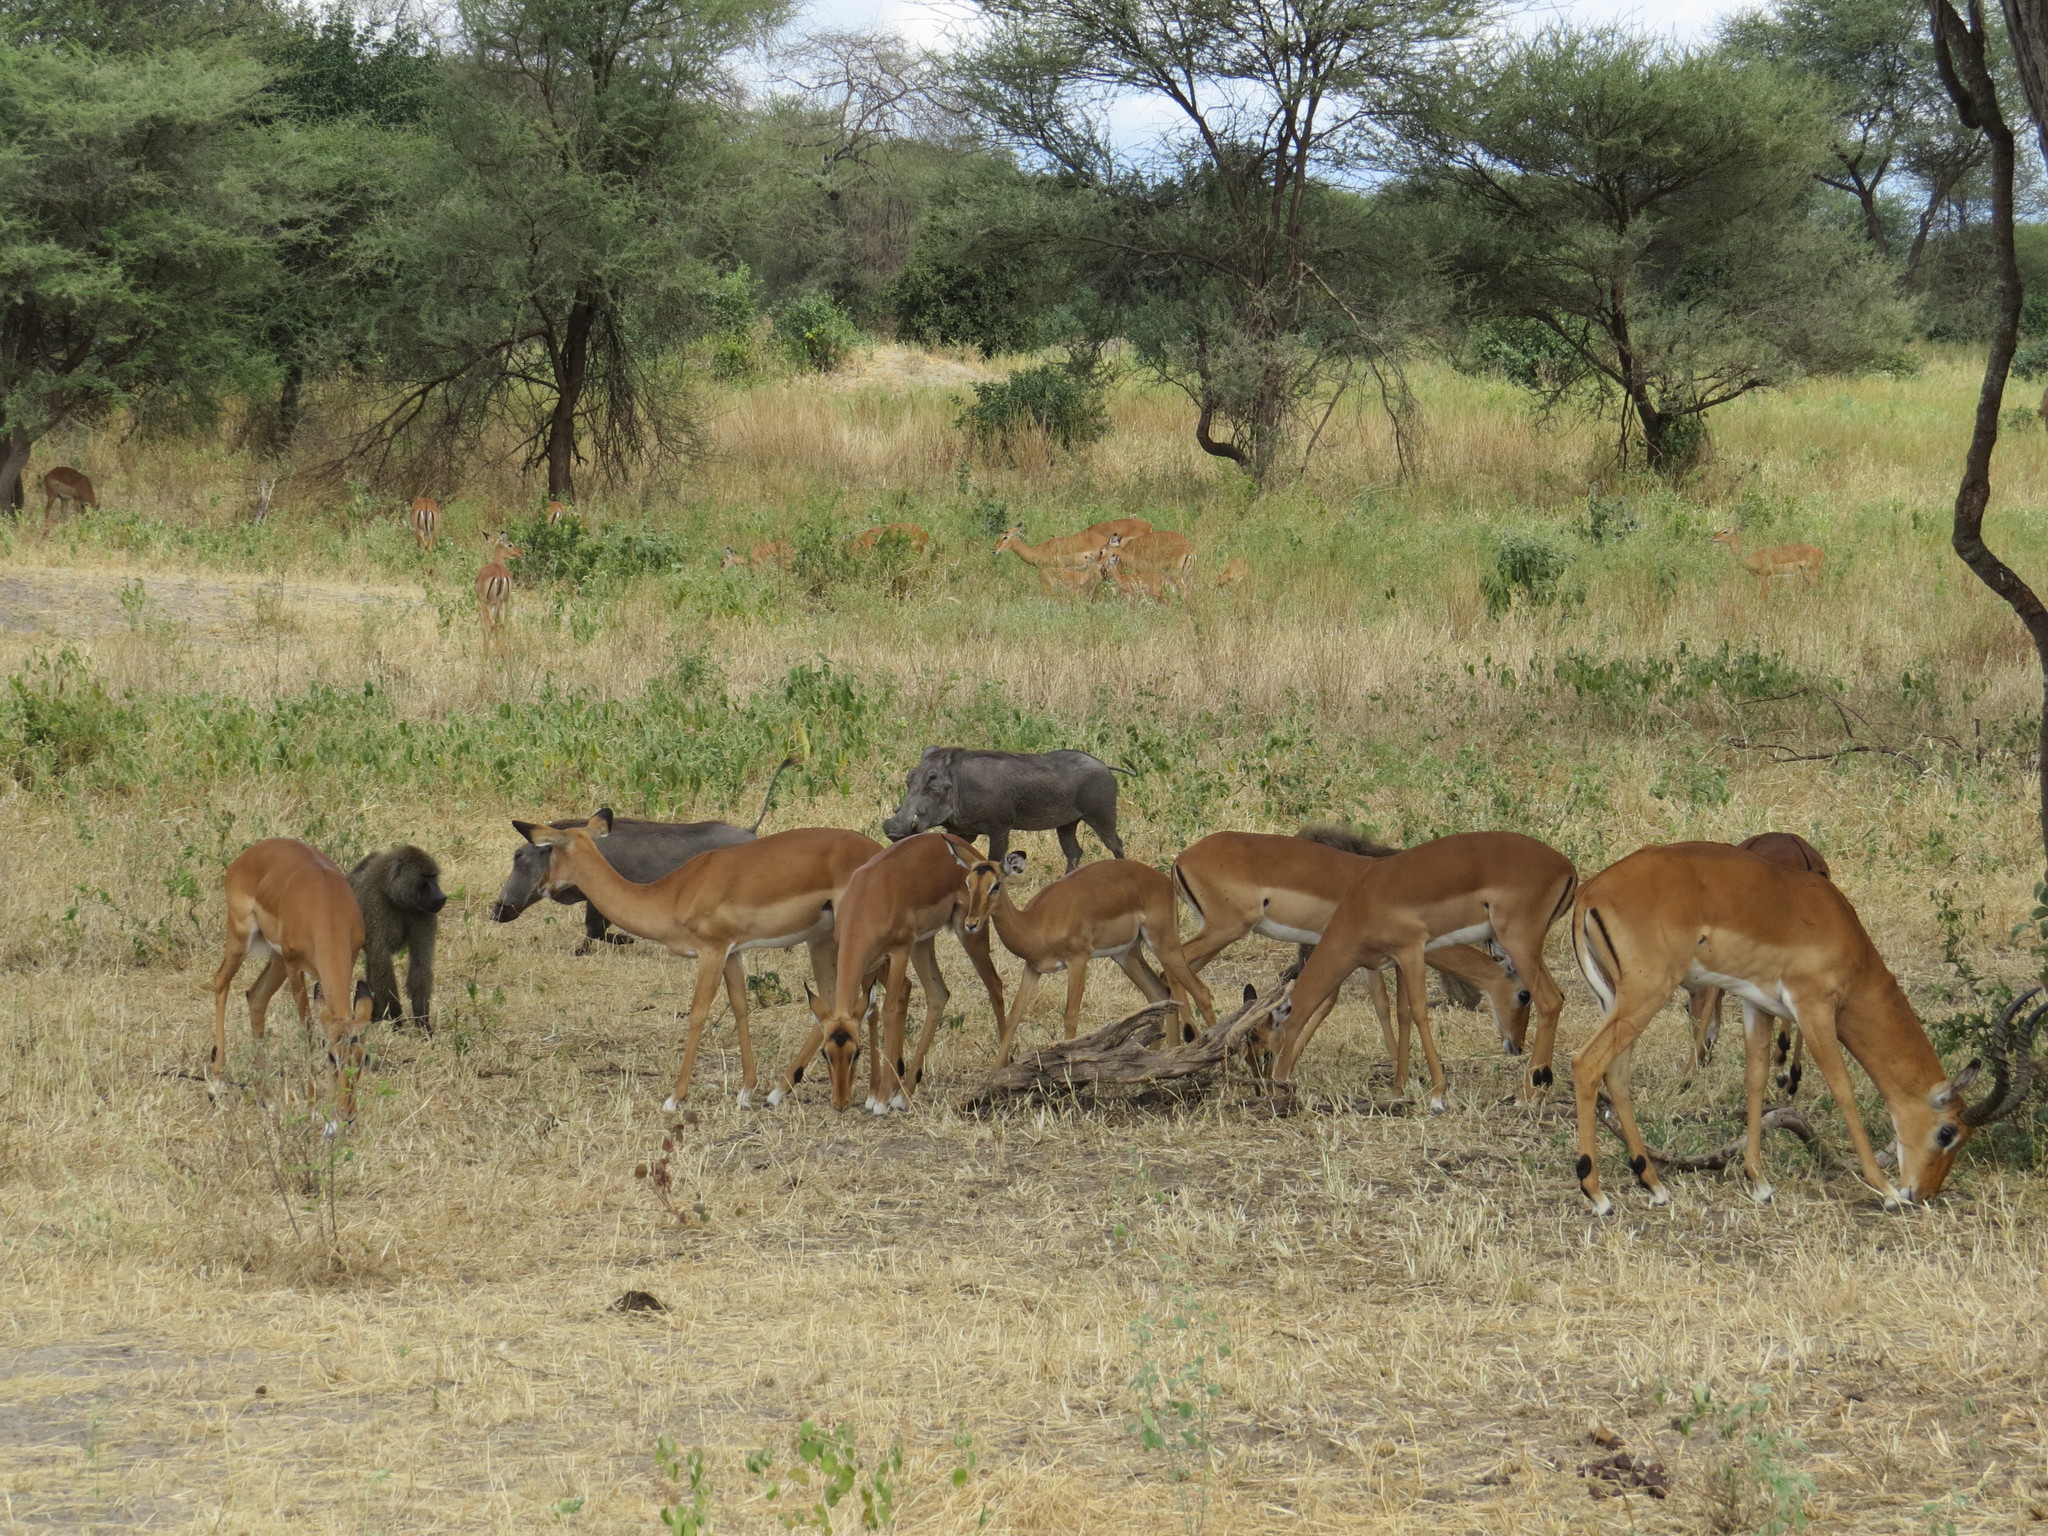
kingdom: Animalia
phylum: Chordata
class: Mammalia
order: Artiodactyla
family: Bovidae
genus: Aepyceros
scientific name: Aepyceros melampus
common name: Impala
